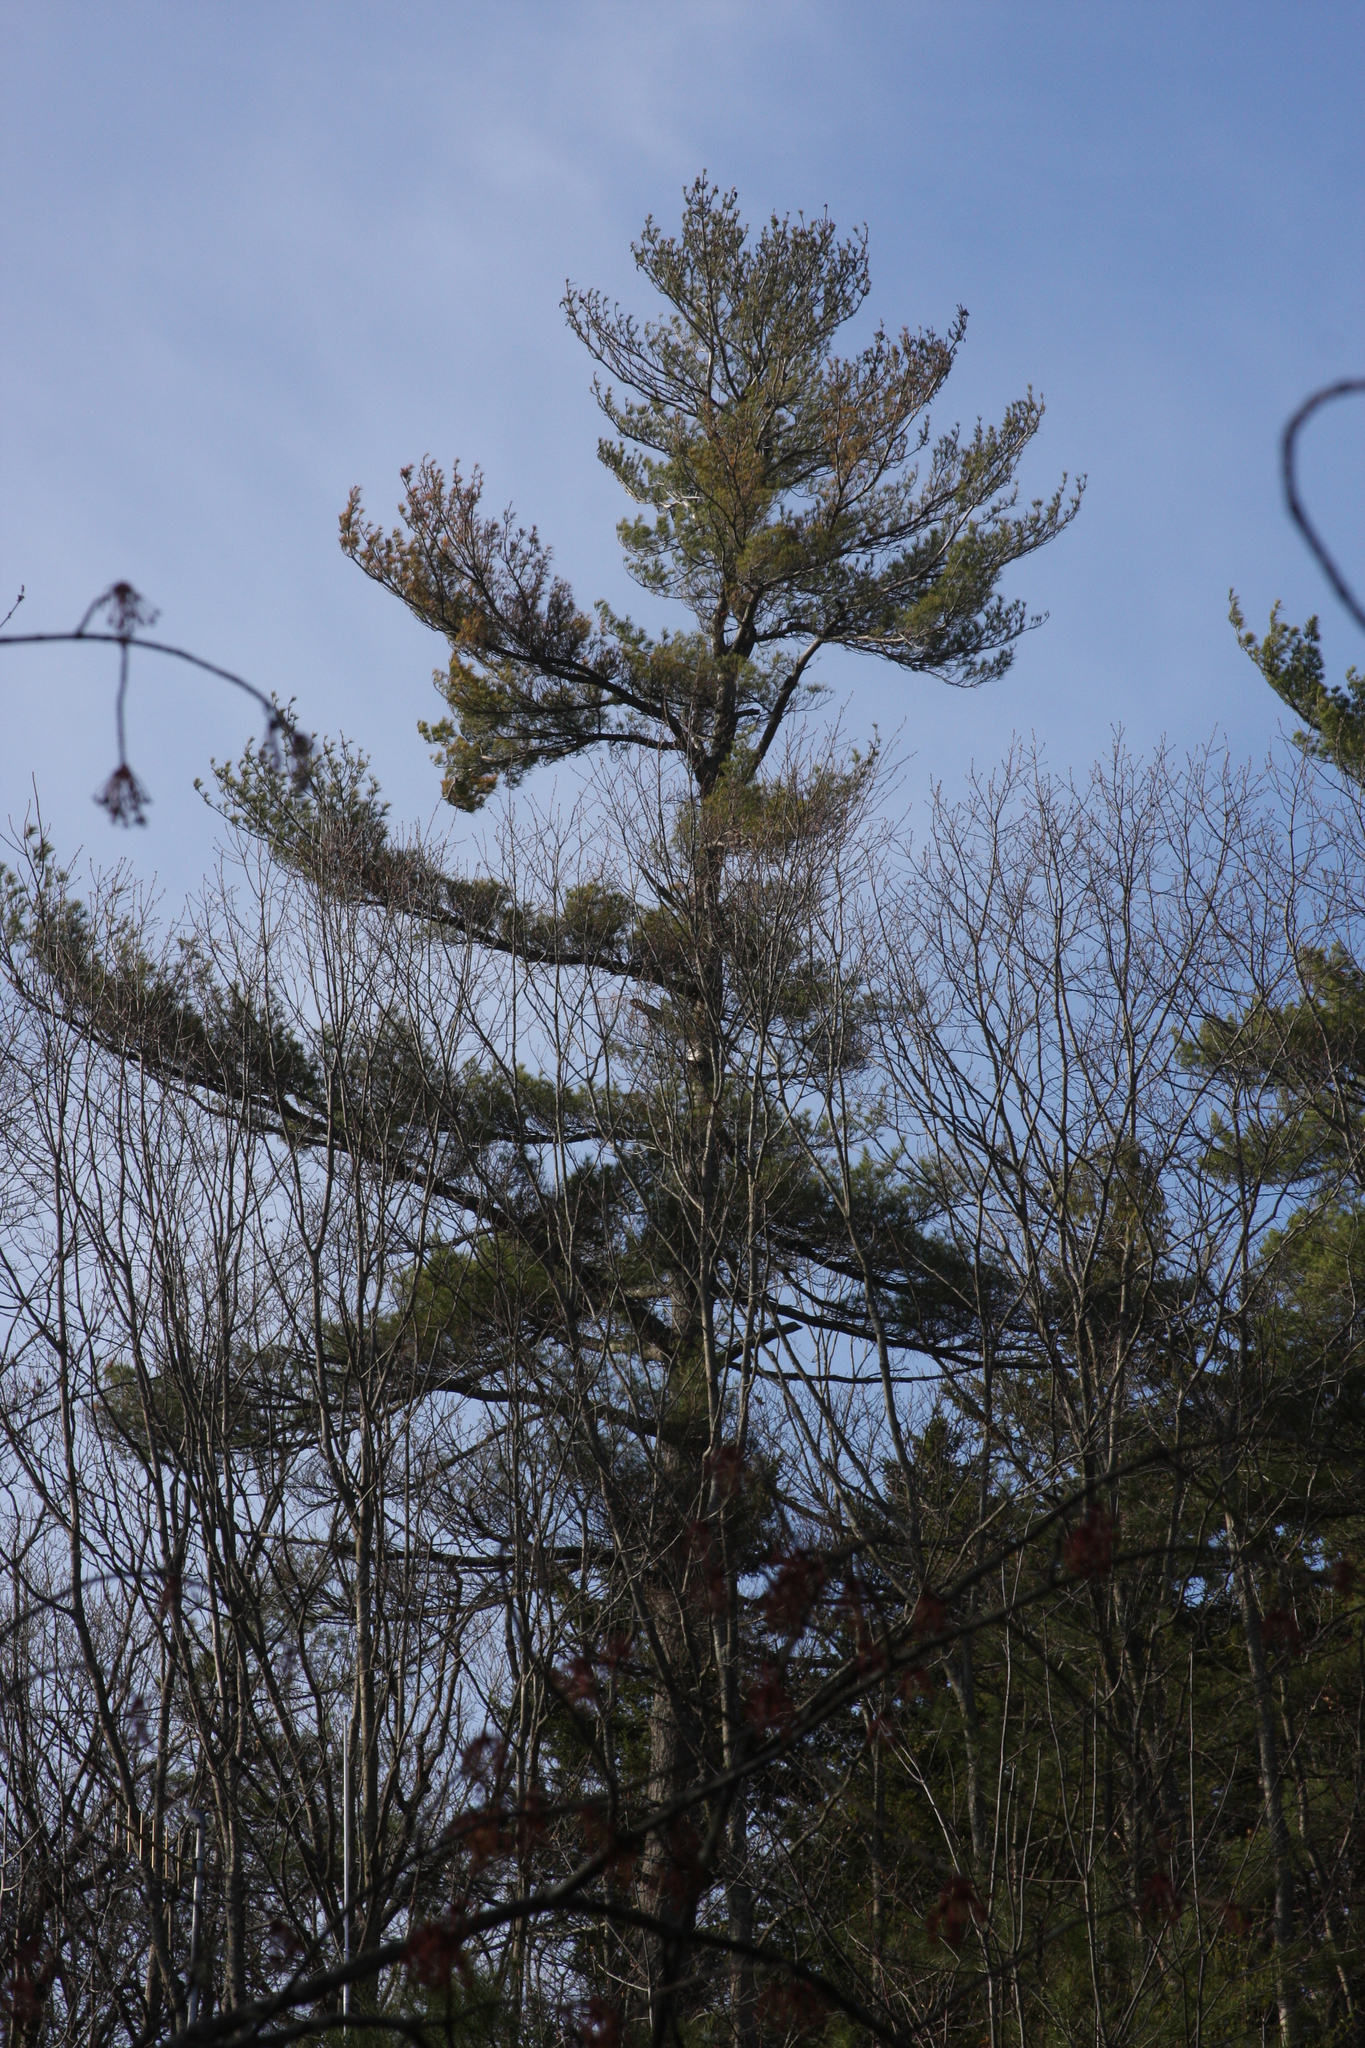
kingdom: Plantae
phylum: Tracheophyta
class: Pinopsida
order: Pinales
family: Pinaceae
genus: Pinus
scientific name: Pinus strobus
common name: Weymouth pine
